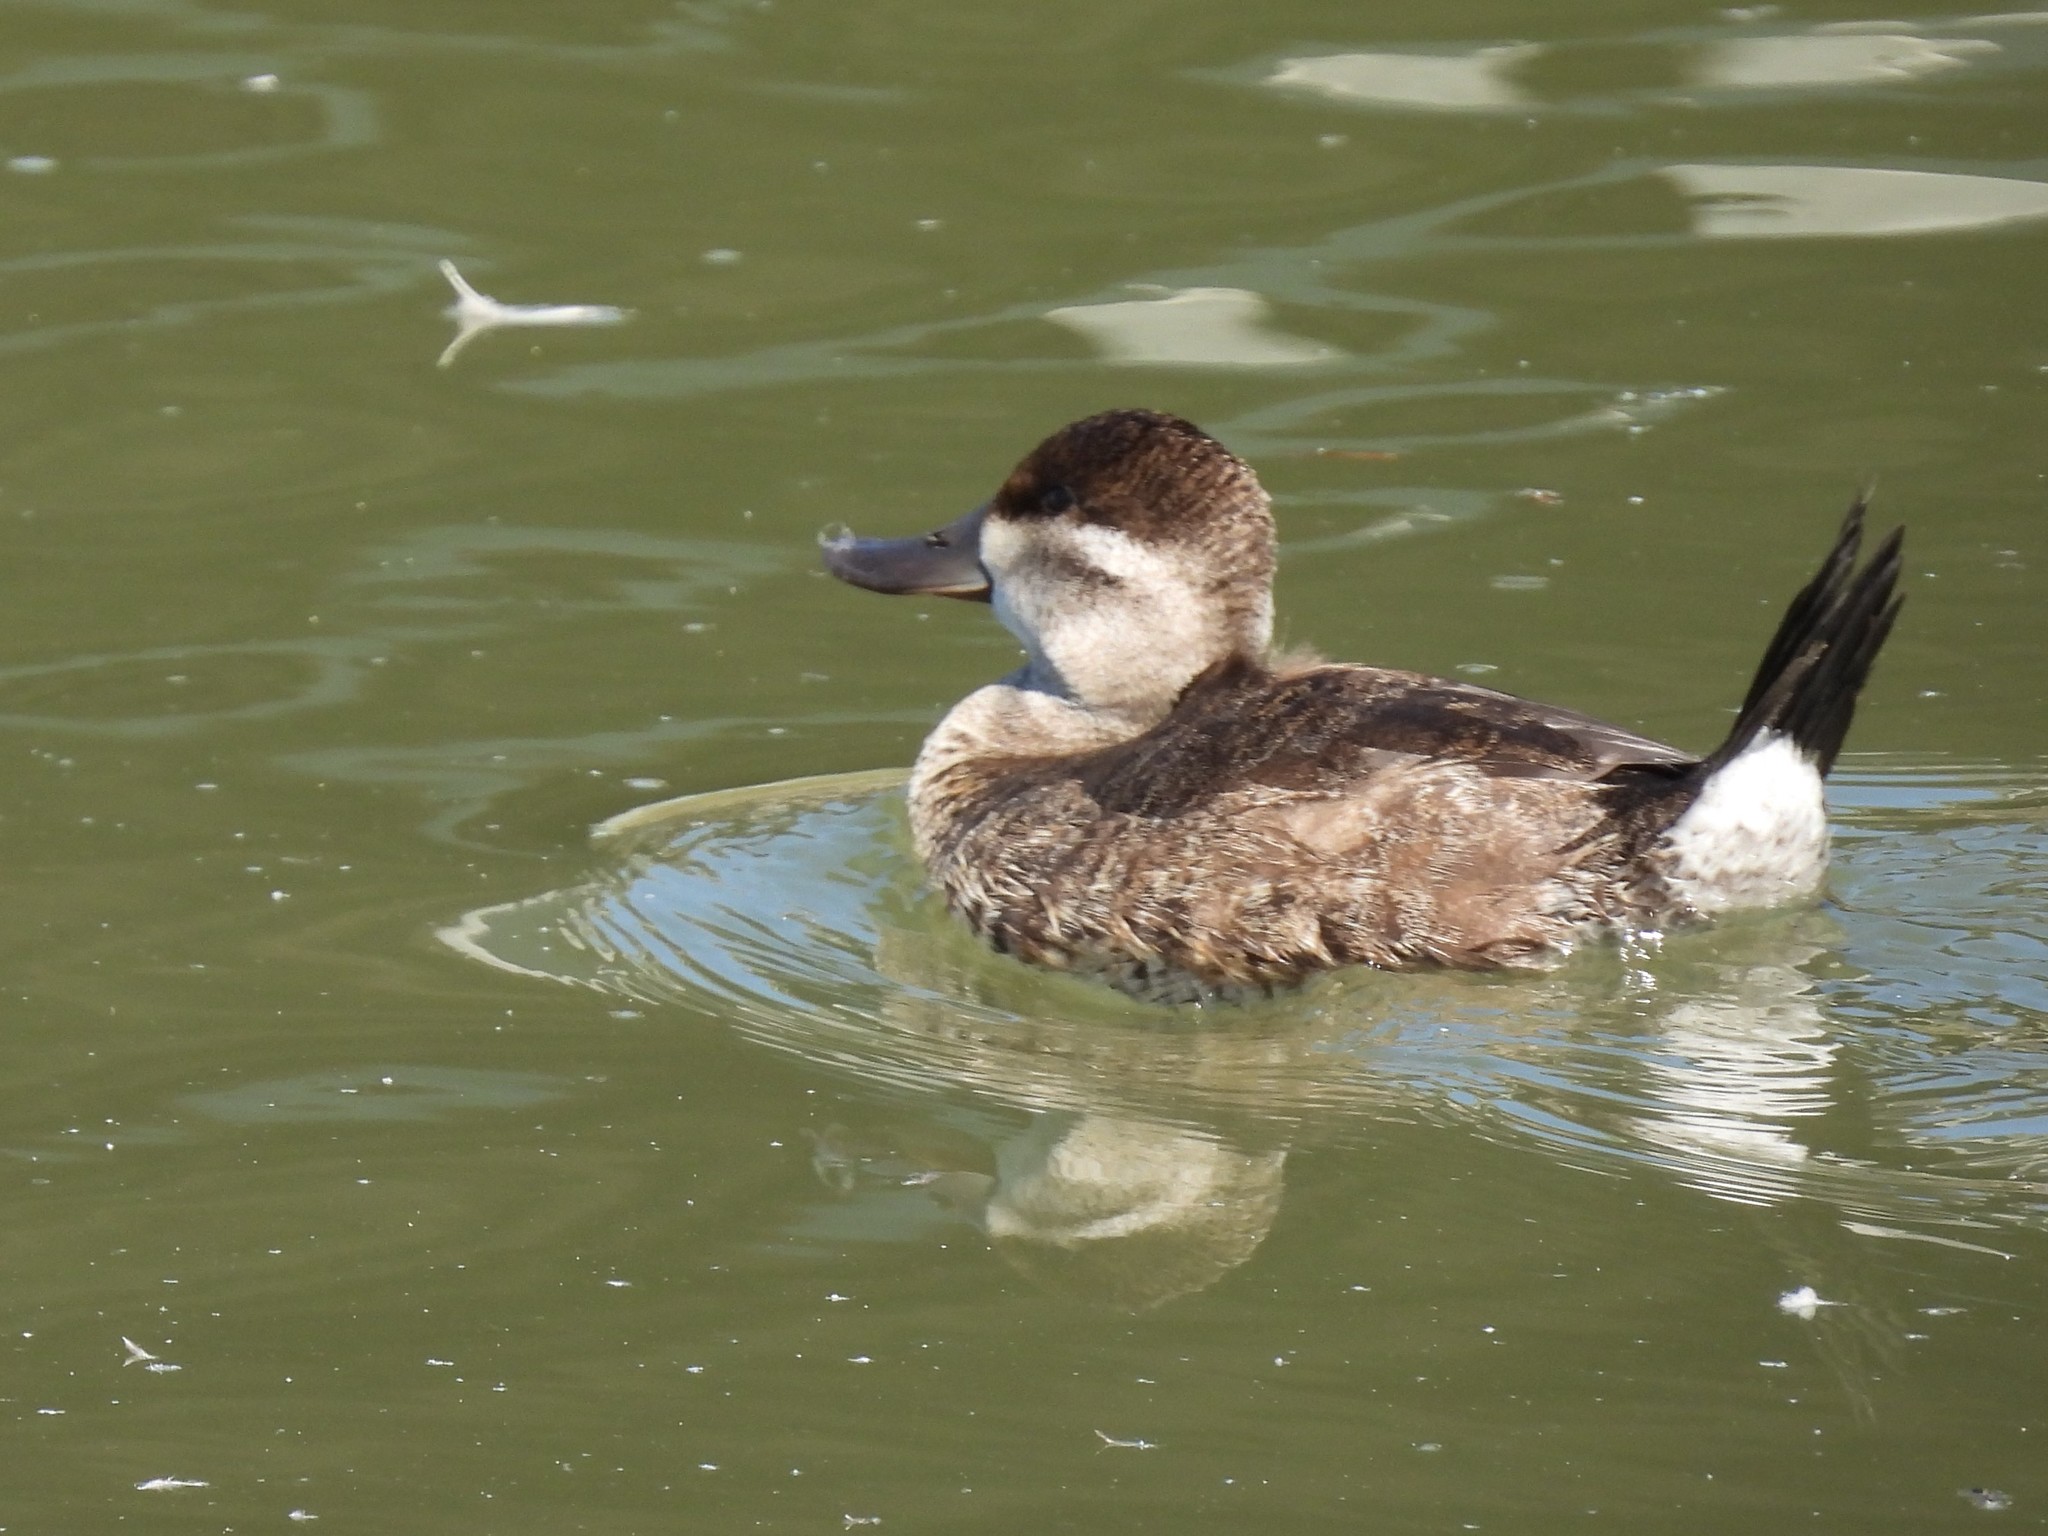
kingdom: Animalia
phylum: Chordata
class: Aves
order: Anseriformes
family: Anatidae
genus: Oxyura
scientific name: Oxyura jamaicensis
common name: Ruddy duck
